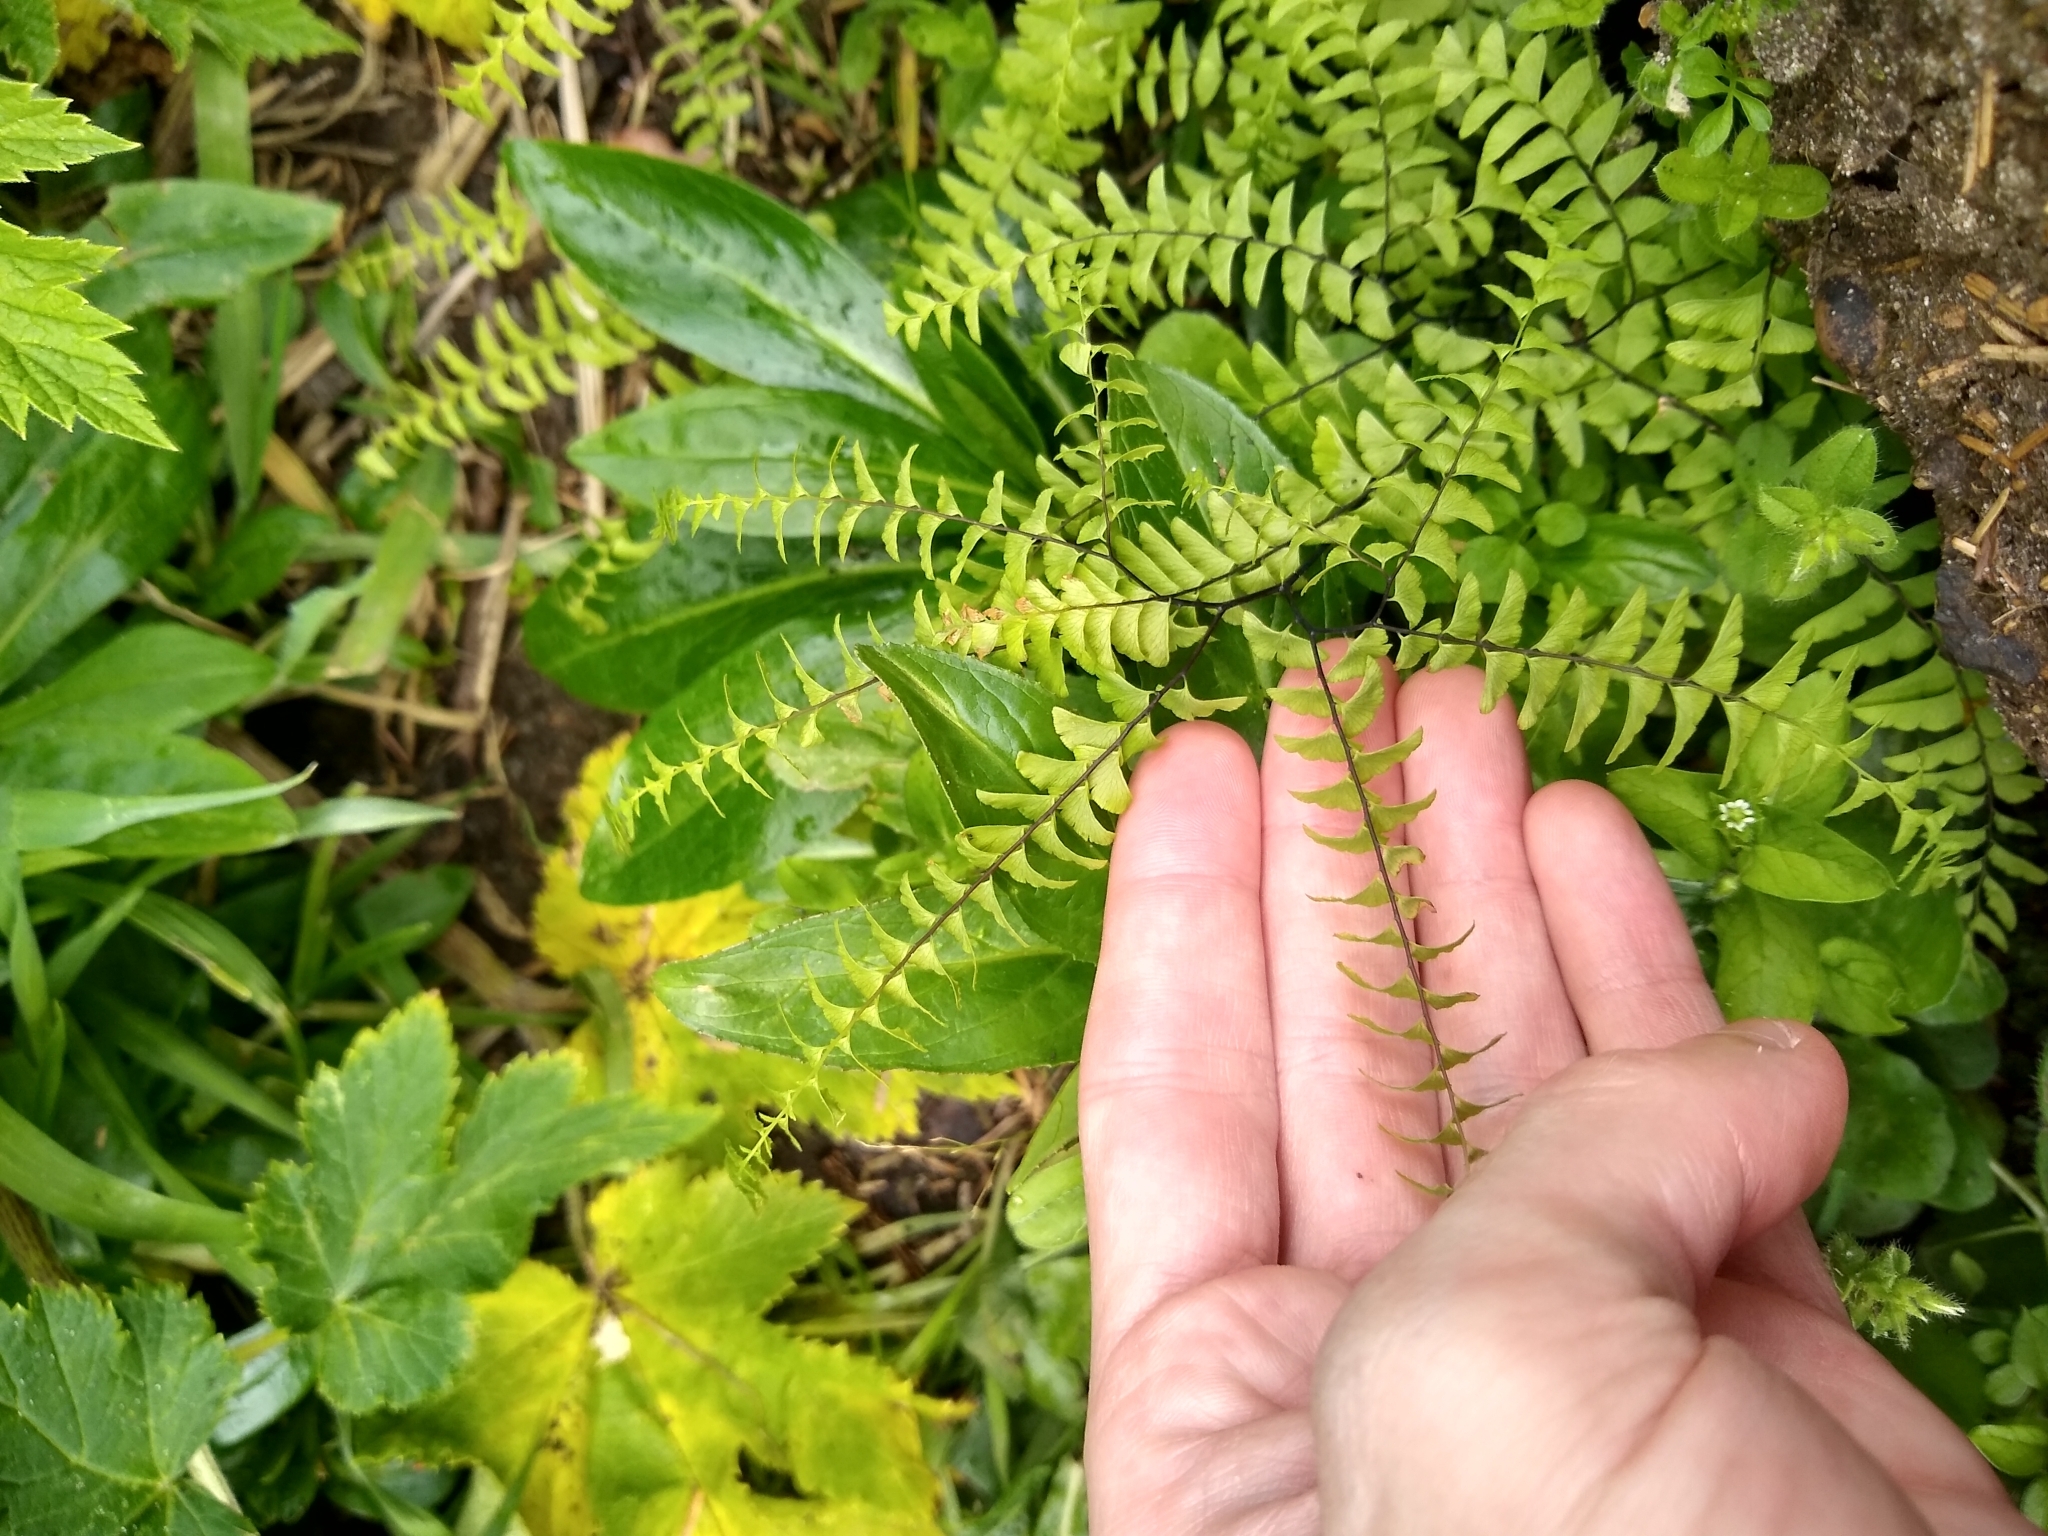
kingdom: Plantae
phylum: Tracheophyta
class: Polypodiopsida
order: Polypodiales
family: Pteridaceae
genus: Adiantum
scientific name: Adiantum aleuticum
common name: Aleutian maidenhair fern
